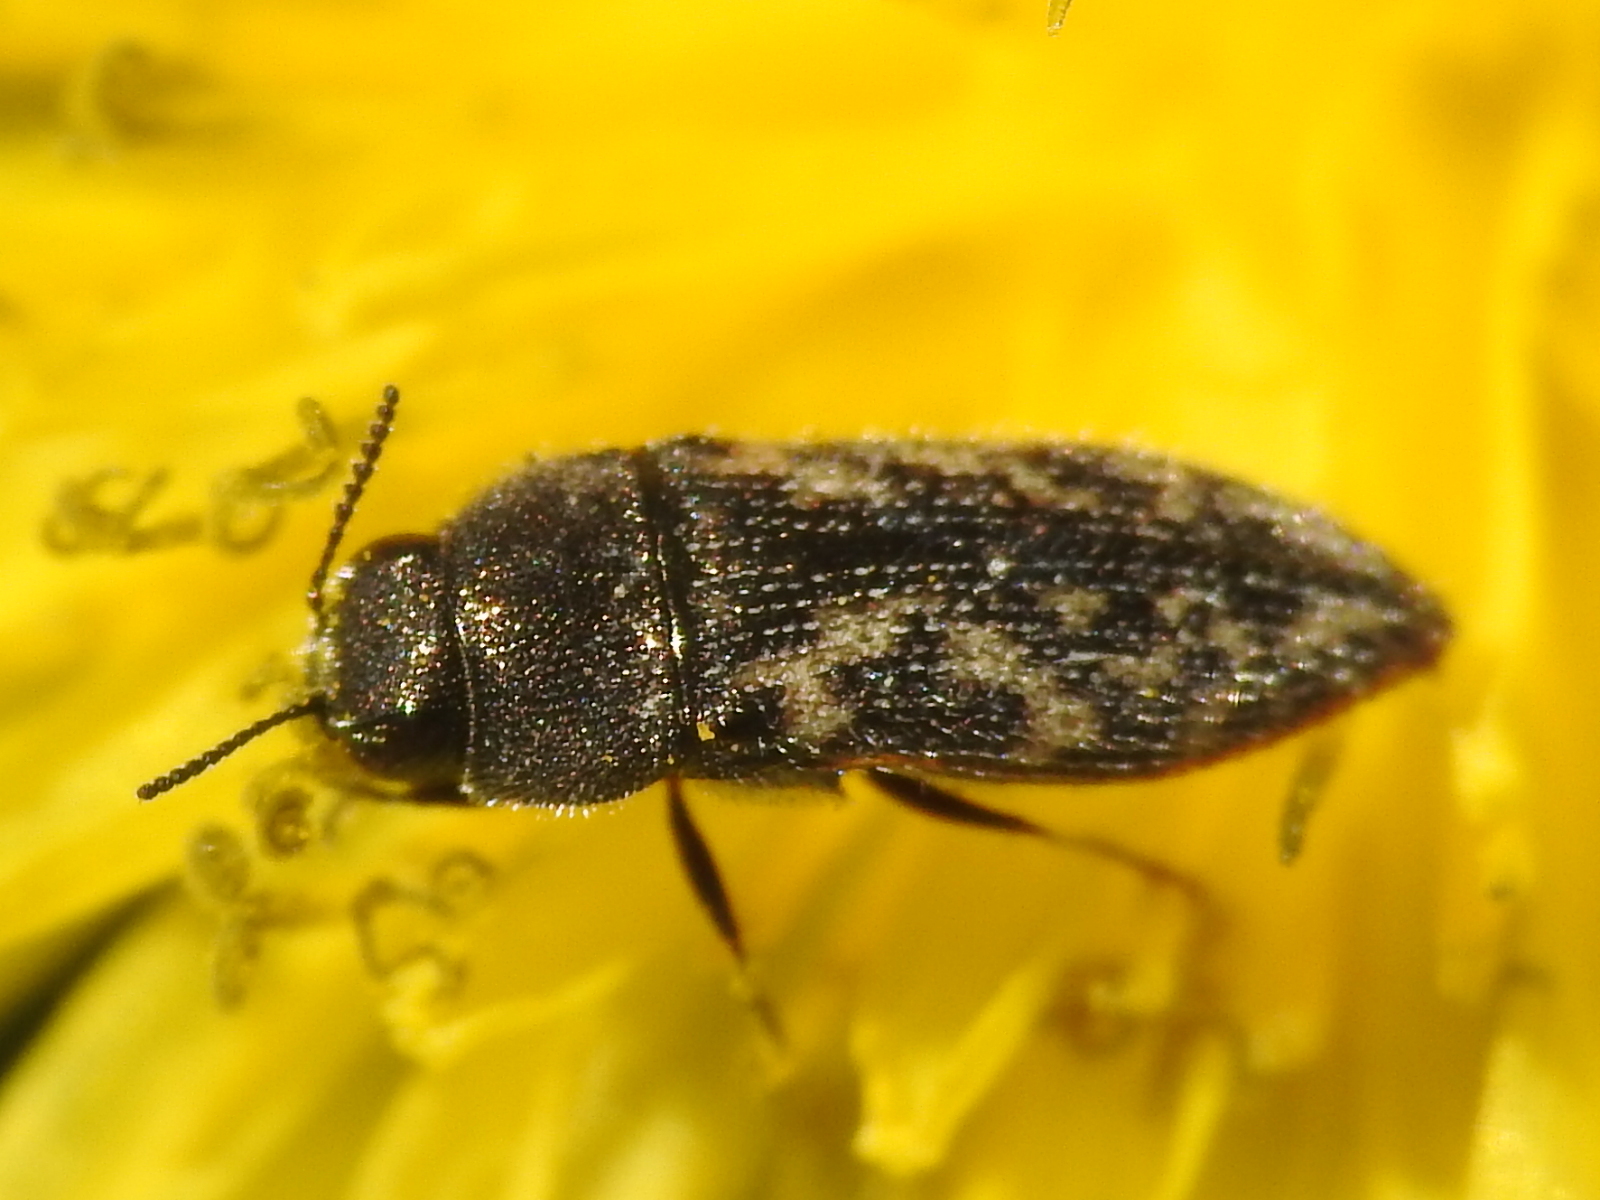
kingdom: Animalia
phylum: Arthropoda
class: Insecta
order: Coleoptera
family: Buprestidae
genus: Acmaeodera
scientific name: Acmaeodera neglecta
